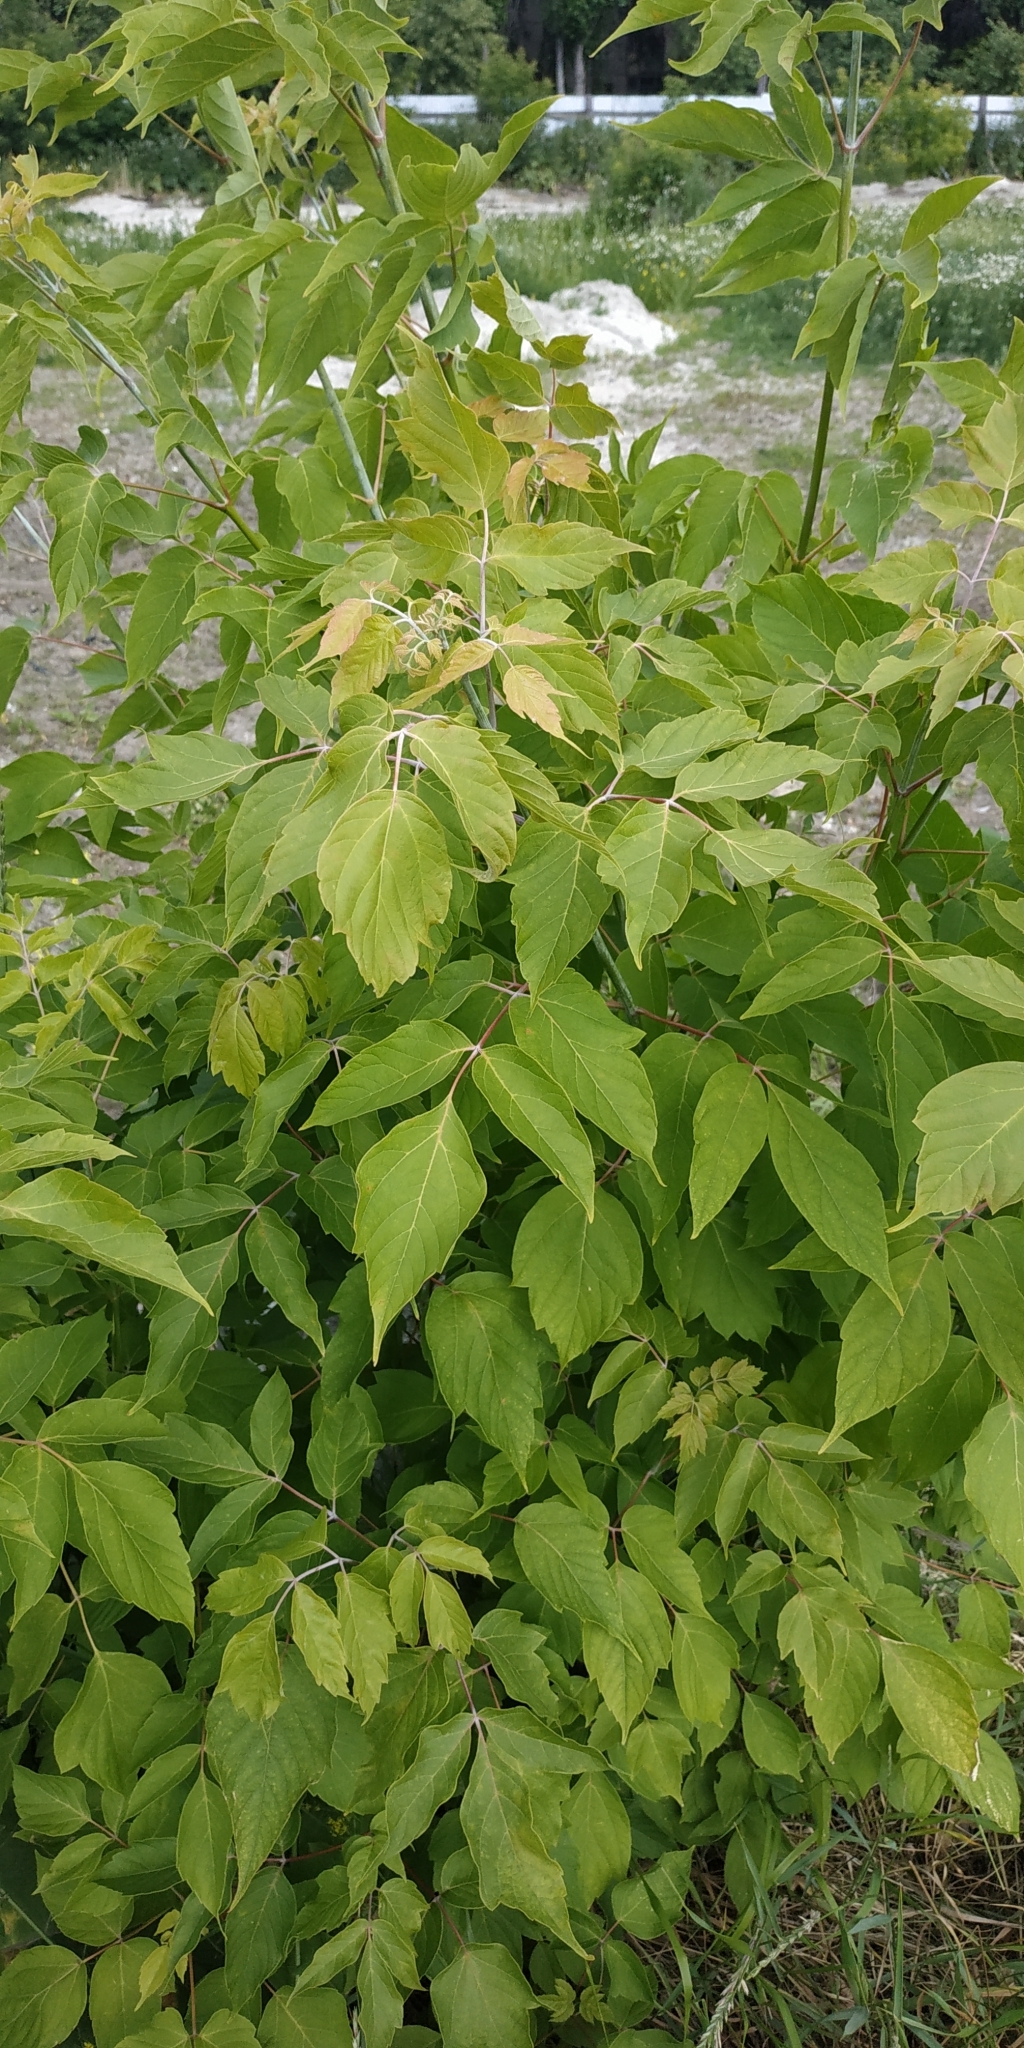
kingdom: Plantae
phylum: Tracheophyta
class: Magnoliopsida
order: Sapindales
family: Sapindaceae
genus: Acer
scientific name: Acer negundo
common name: Ashleaf maple
